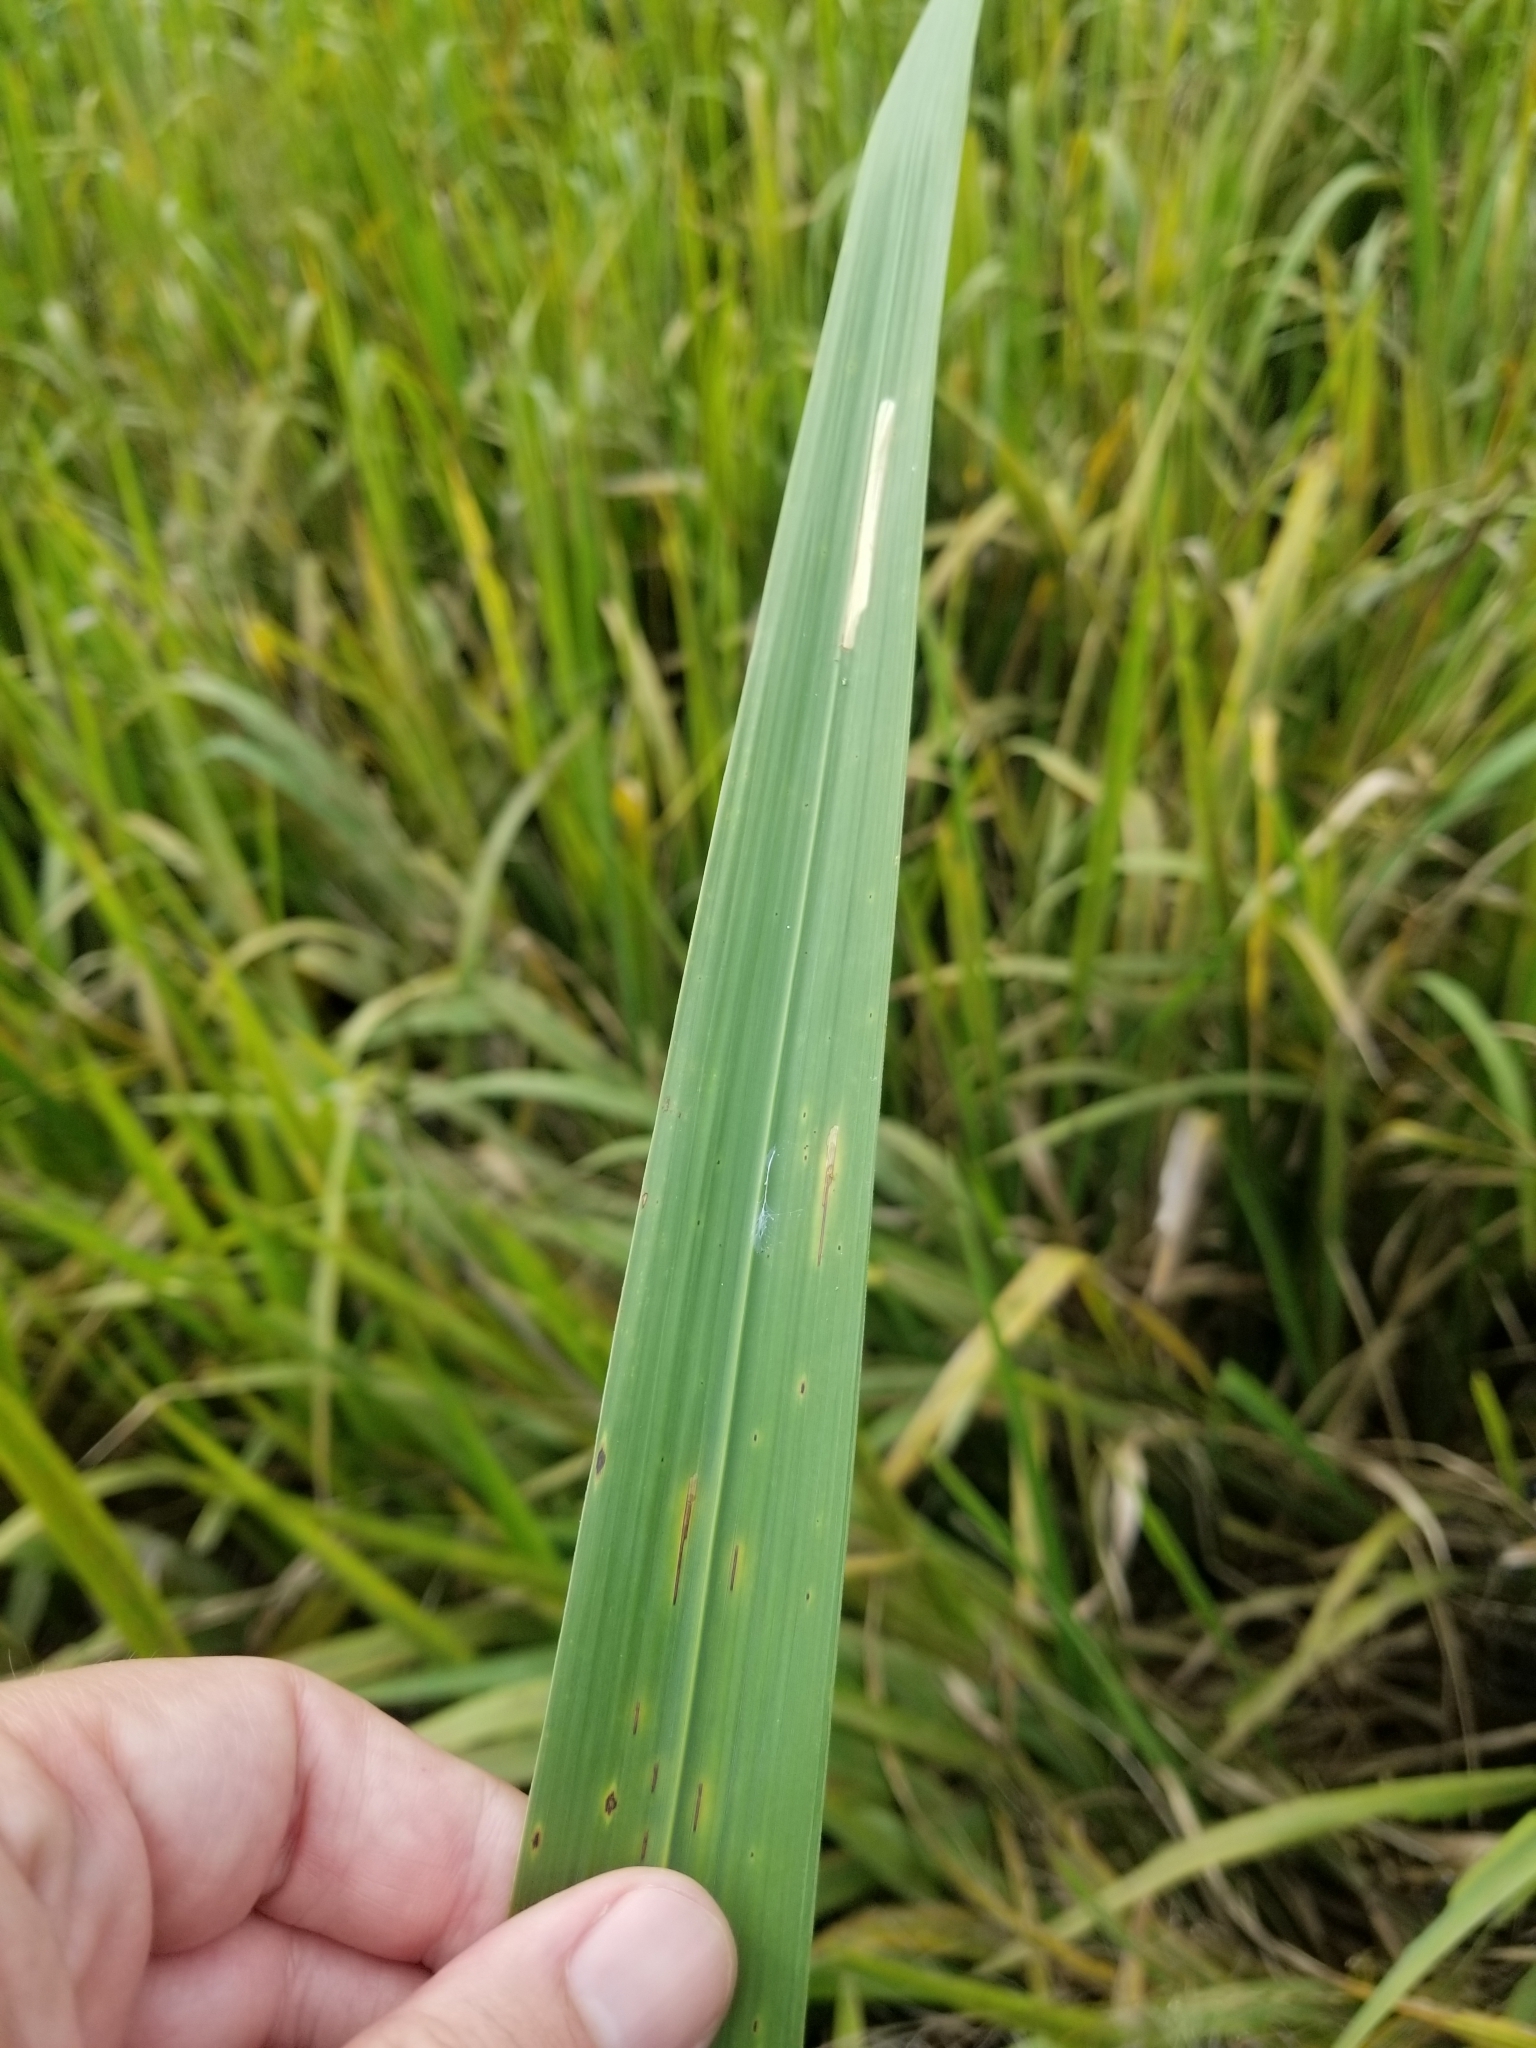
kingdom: Plantae
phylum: Tracheophyta
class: Liliopsida
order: Poales
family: Poaceae
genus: Zizaniopsis
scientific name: Zizaniopsis miliacea
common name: Giant-cutgrass
